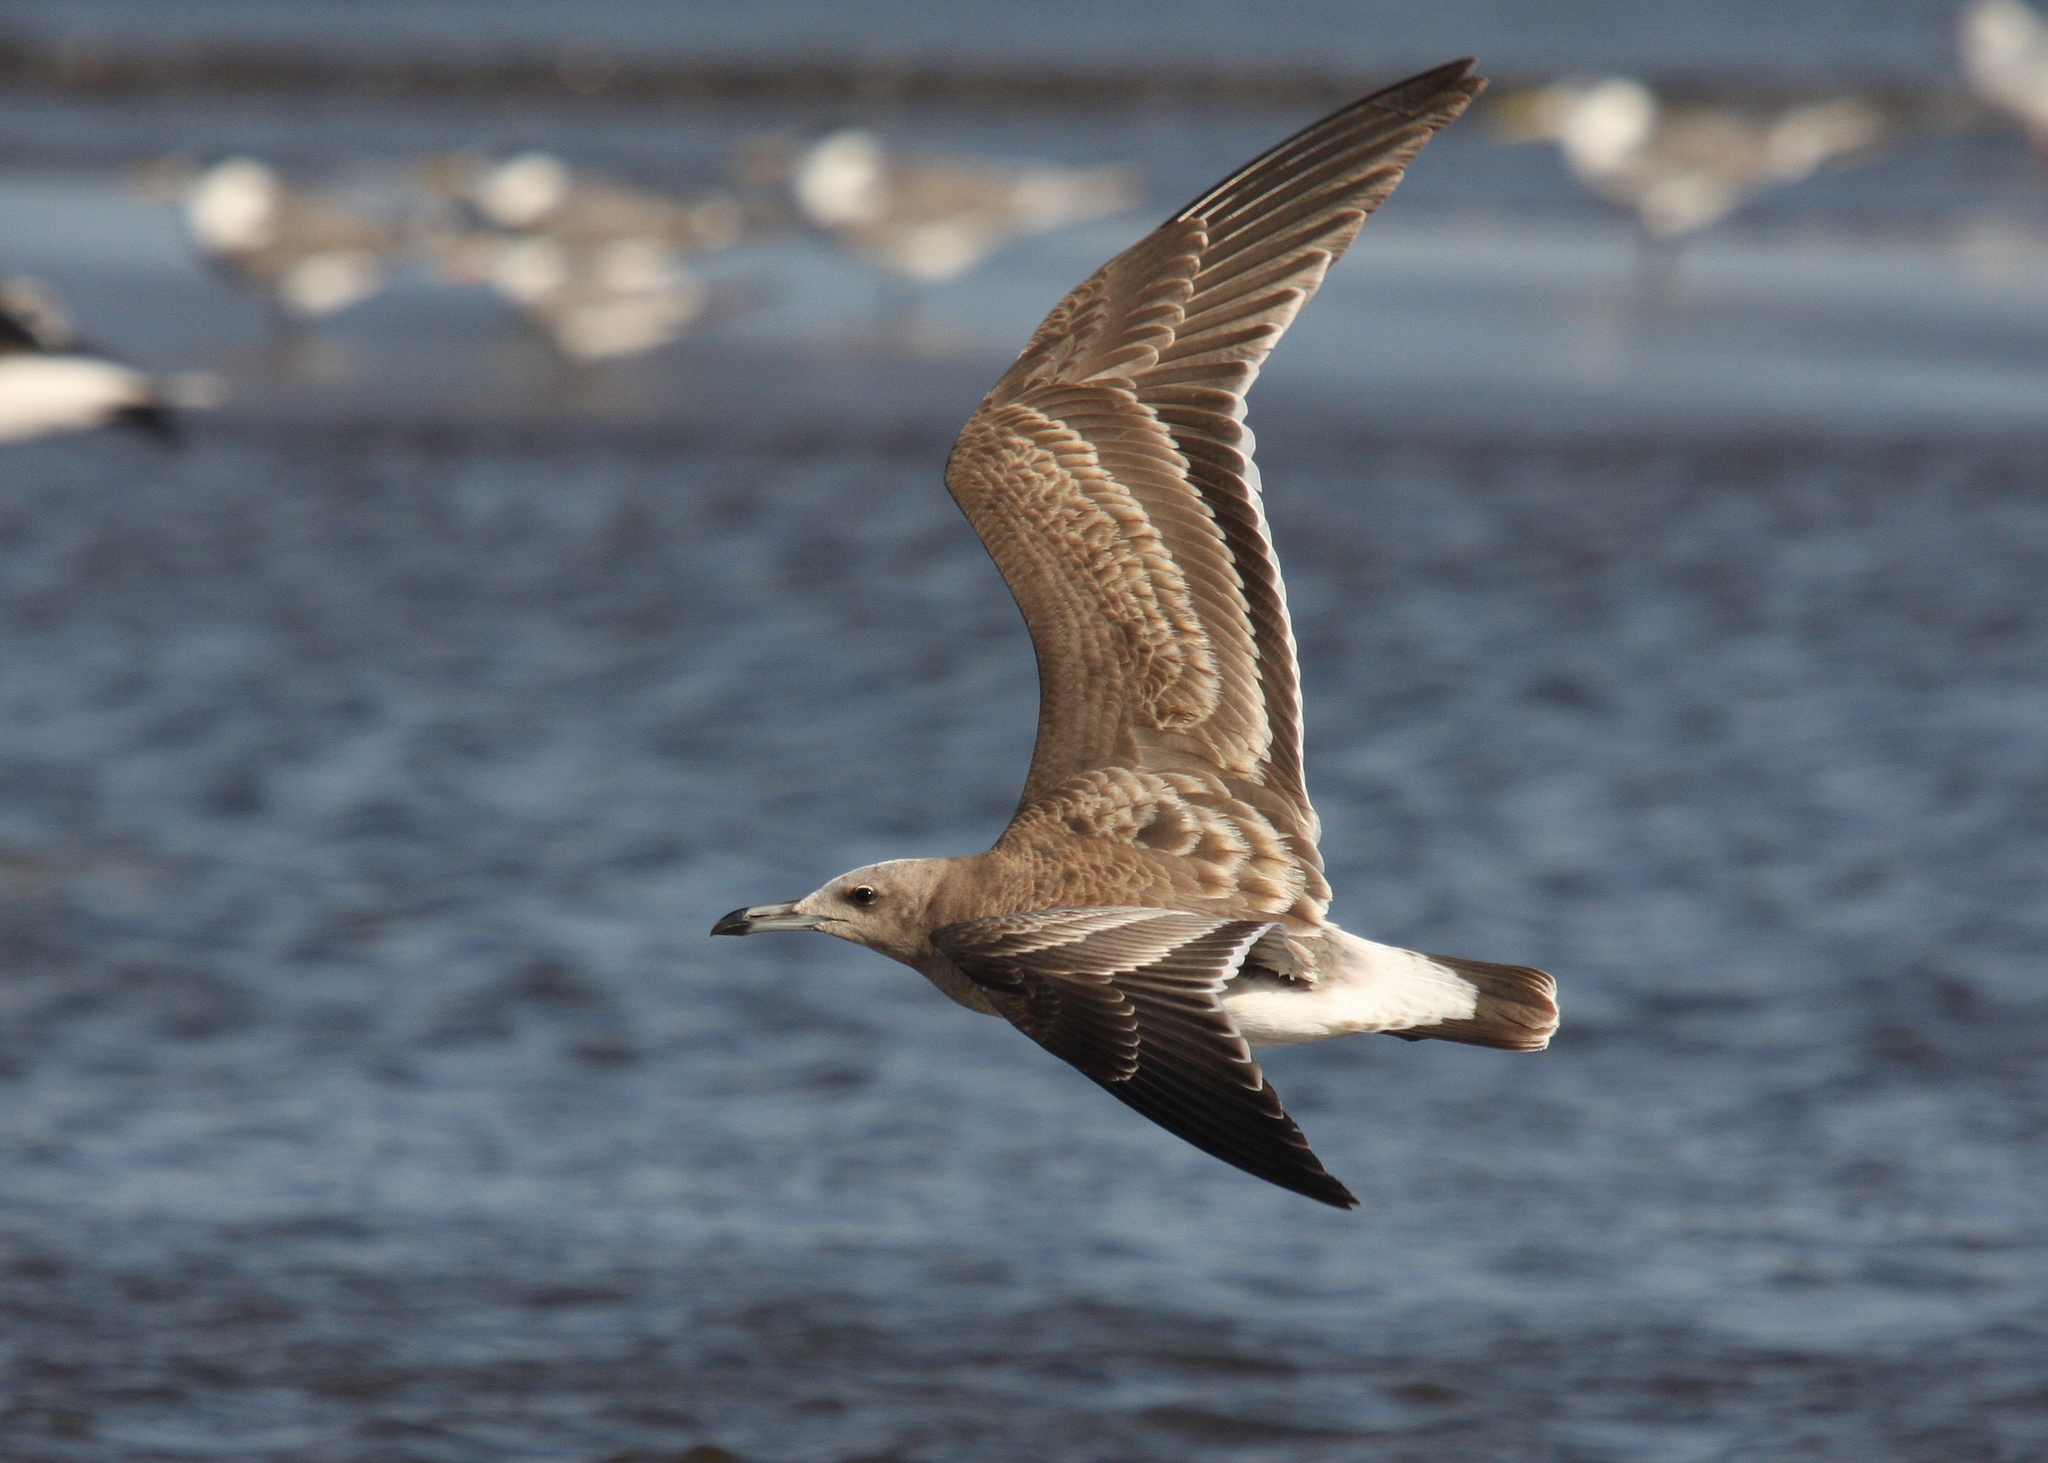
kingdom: Animalia
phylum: Chordata
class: Aves
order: Charadriiformes
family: Laridae
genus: Ichthyaetus
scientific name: Ichthyaetus hemprichii
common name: Sooty gull
